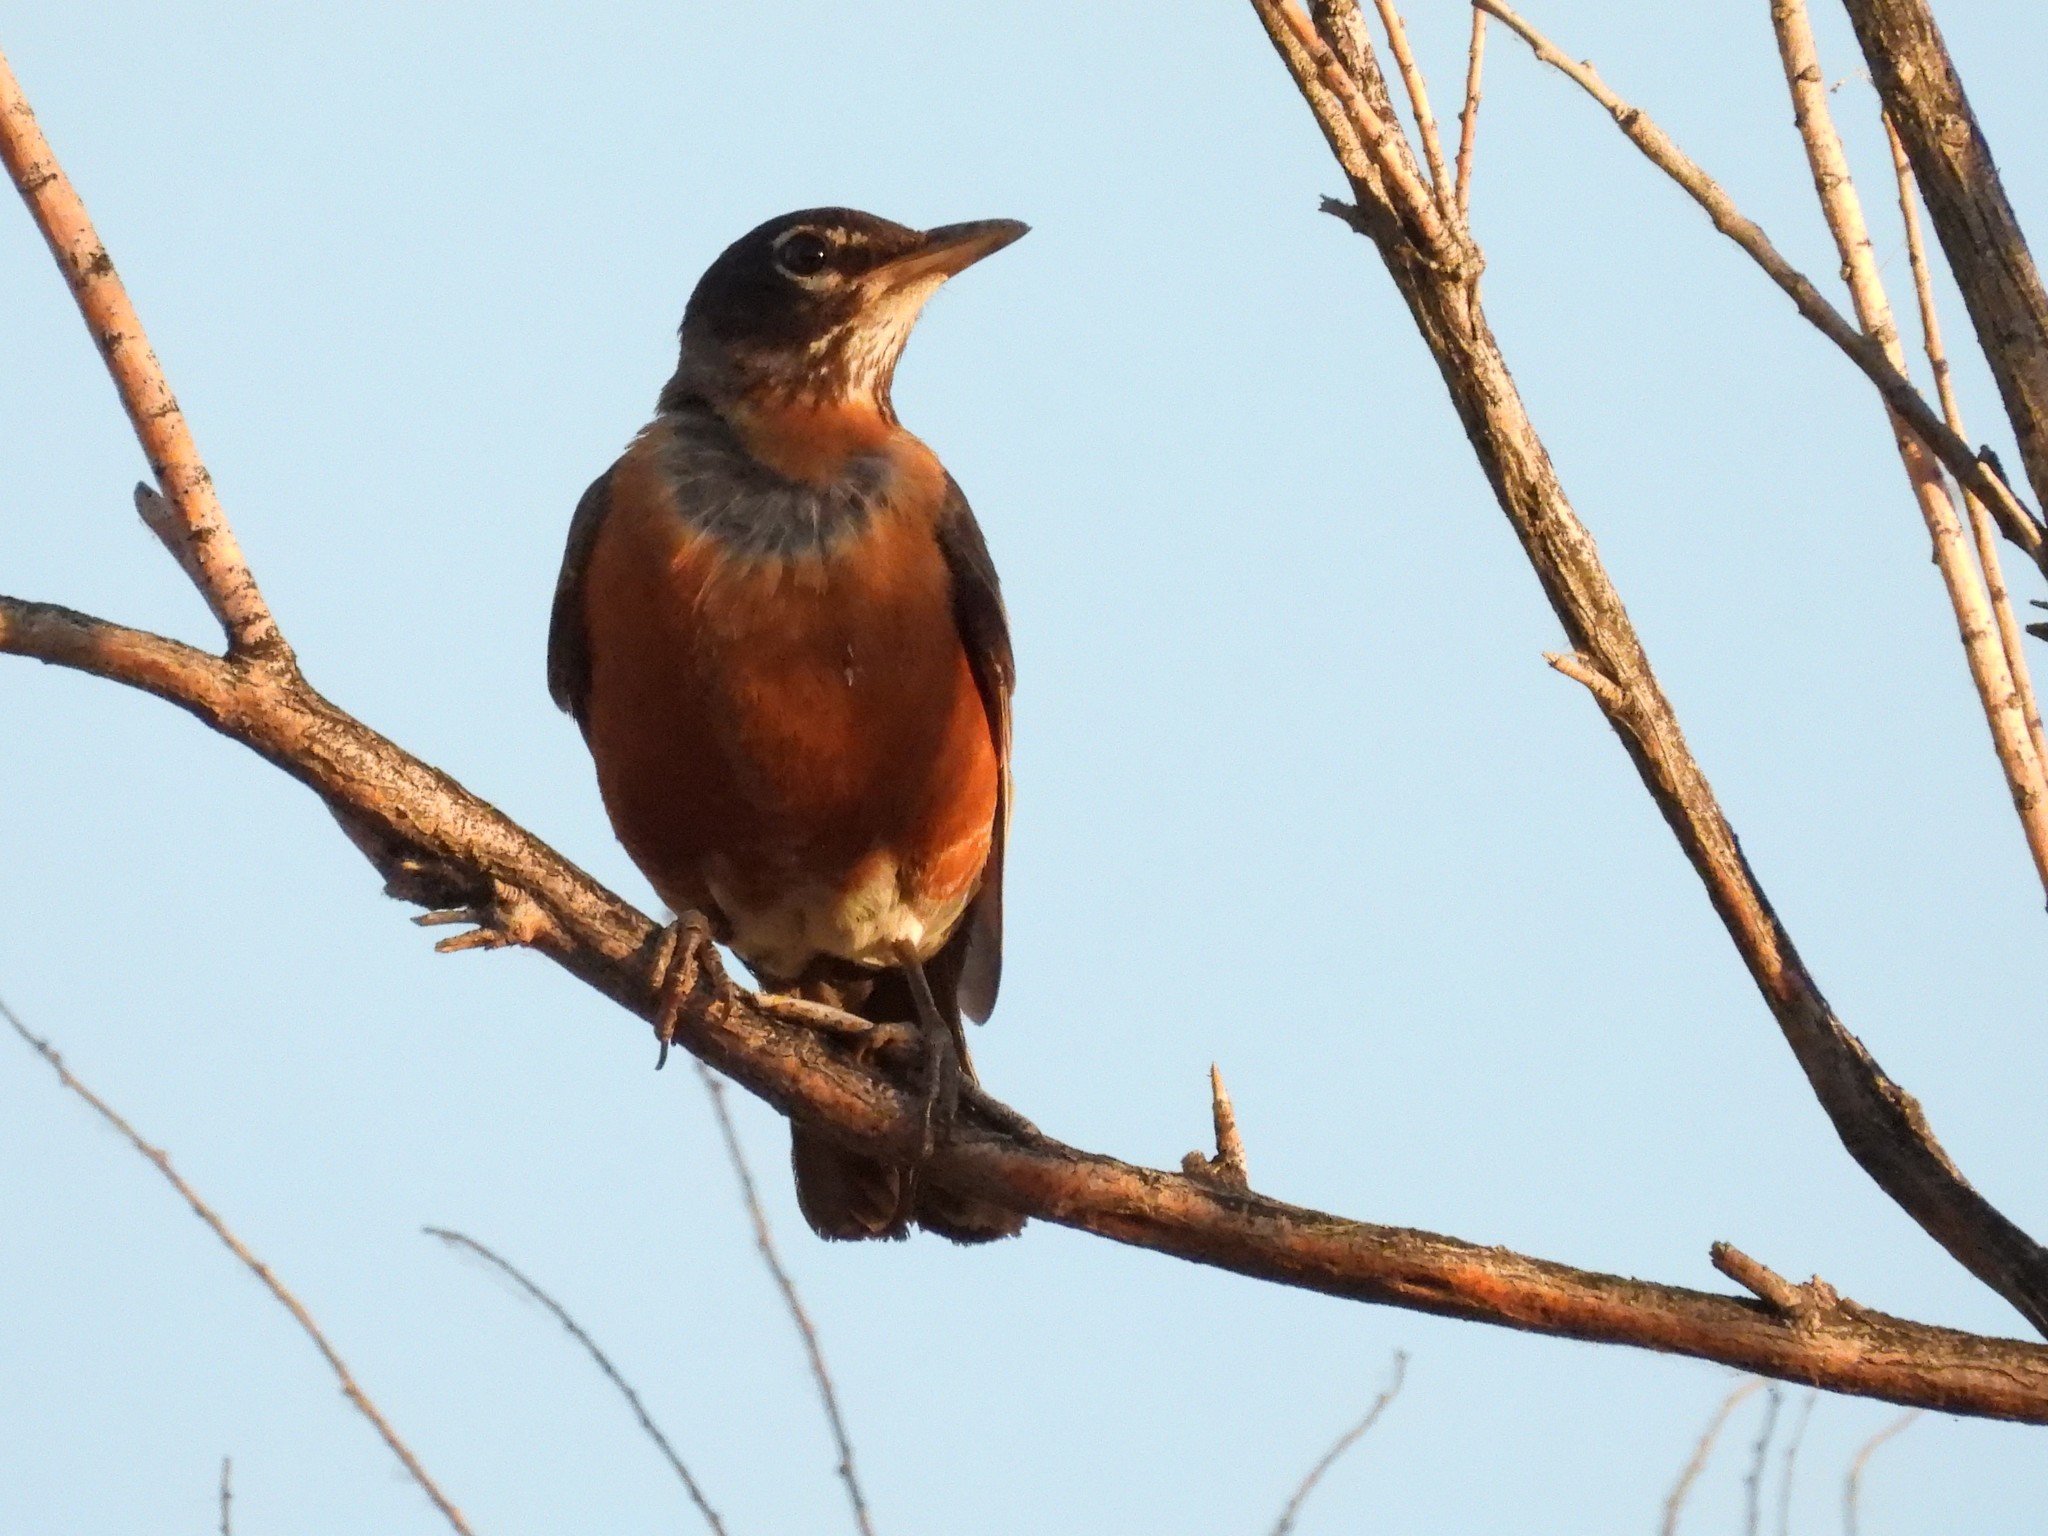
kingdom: Animalia
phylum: Chordata
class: Aves
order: Passeriformes
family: Turdidae
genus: Turdus
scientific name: Turdus migratorius
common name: American robin
